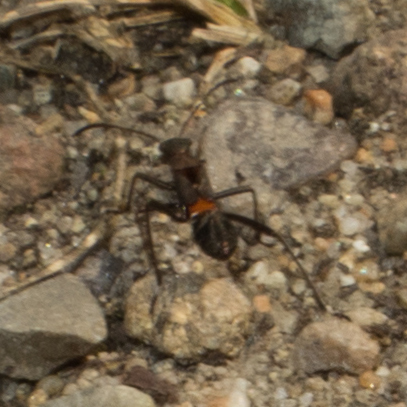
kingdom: Animalia
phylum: Arthropoda
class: Insecta
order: Hemiptera
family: Alydidae
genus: Alydus
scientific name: Alydus calcaratus
